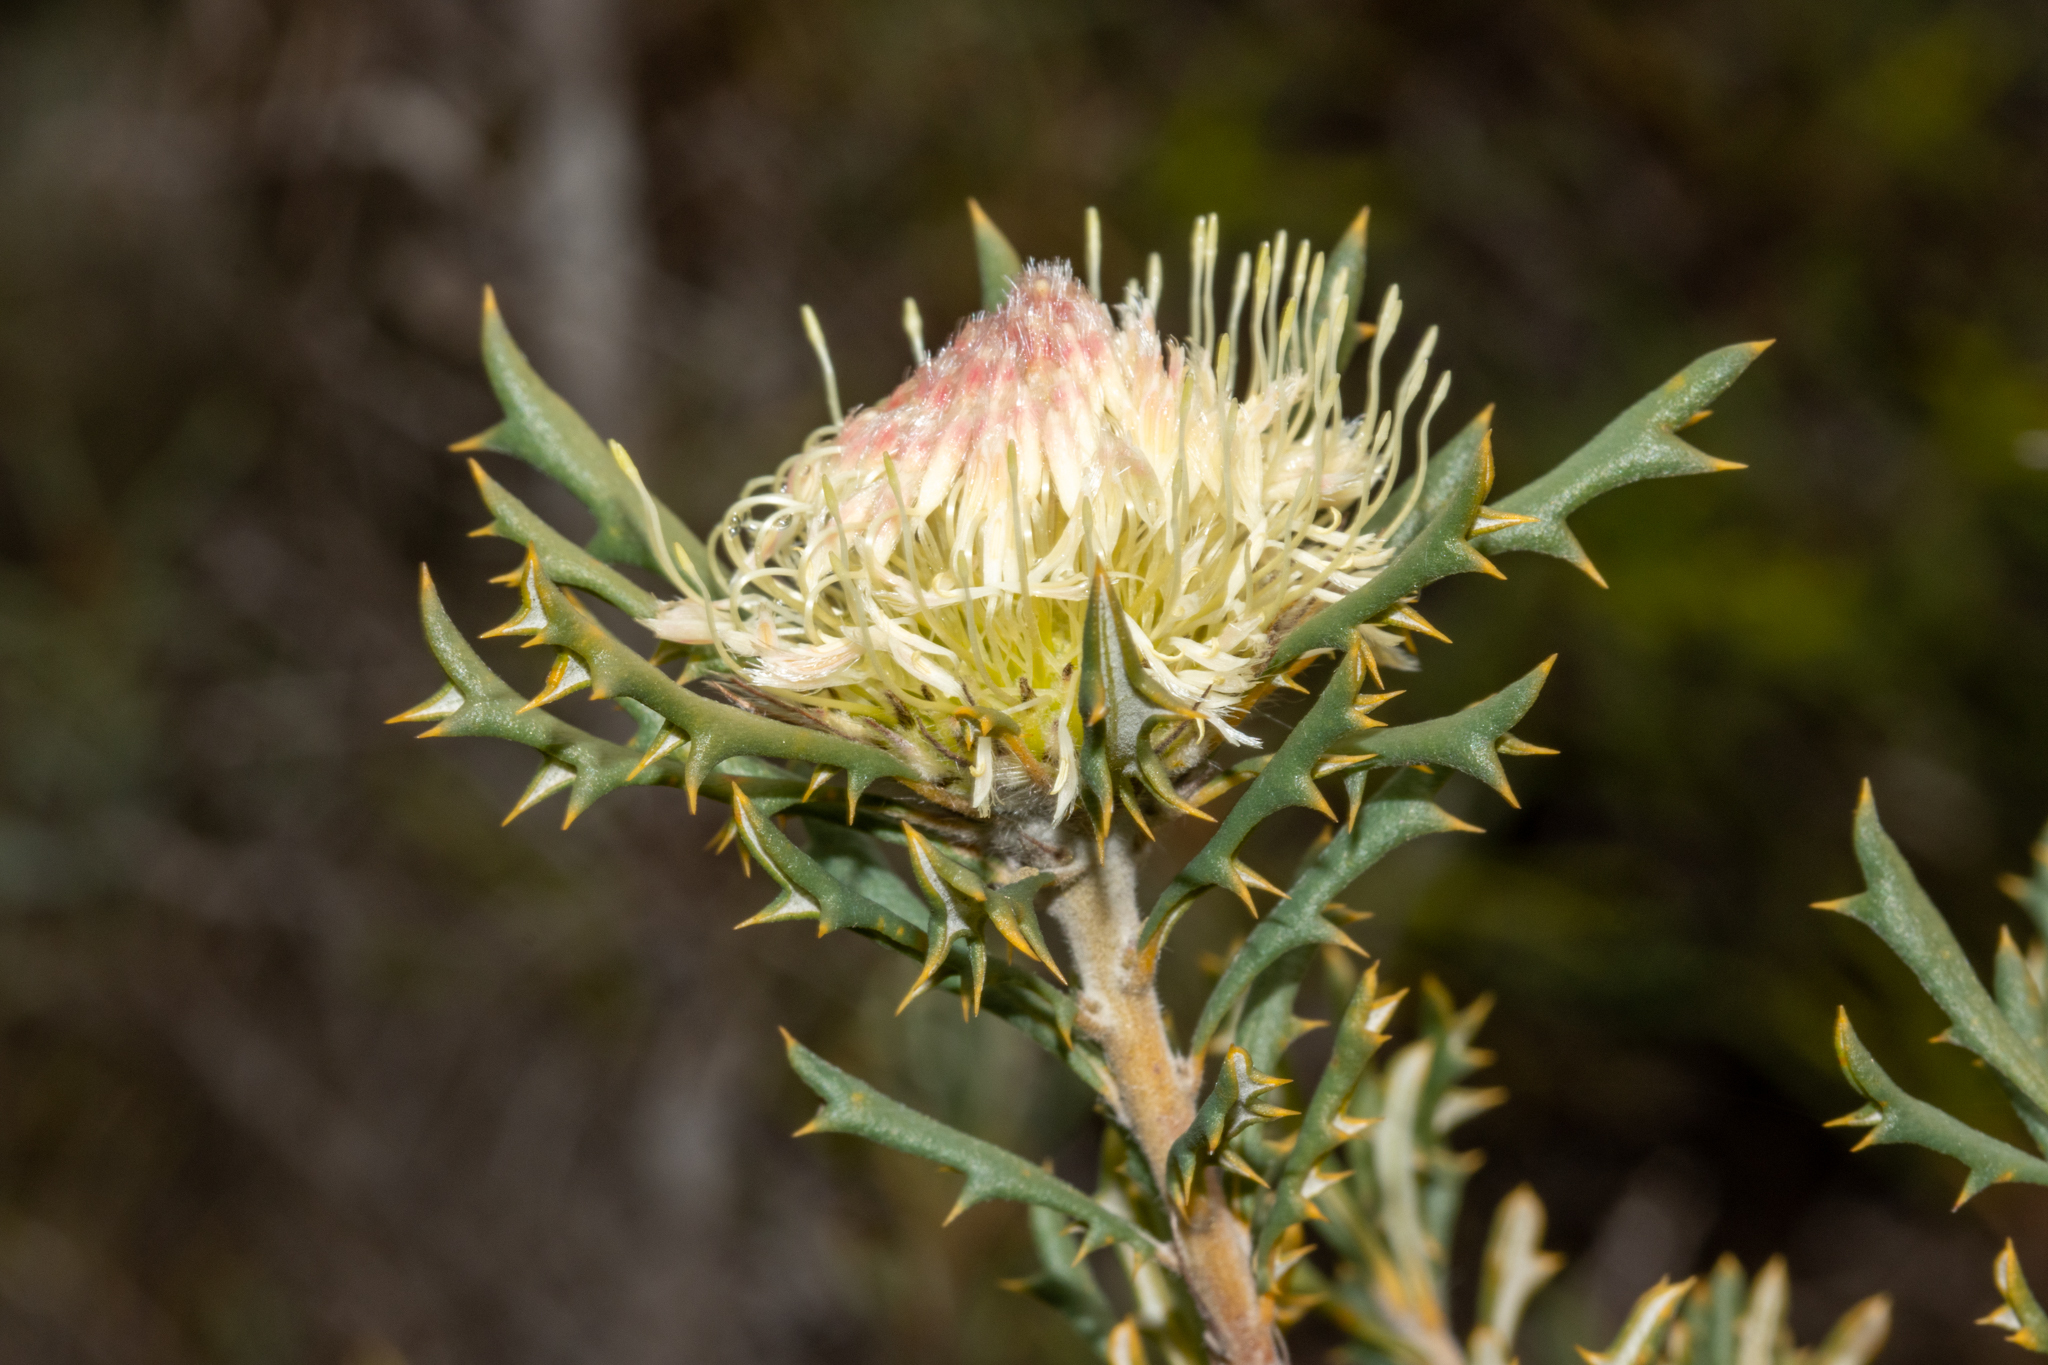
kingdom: Plantae
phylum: Tracheophyta
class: Magnoliopsida
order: Proteales
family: Proteaceae
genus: Banksia
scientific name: Banksia carlinoides
